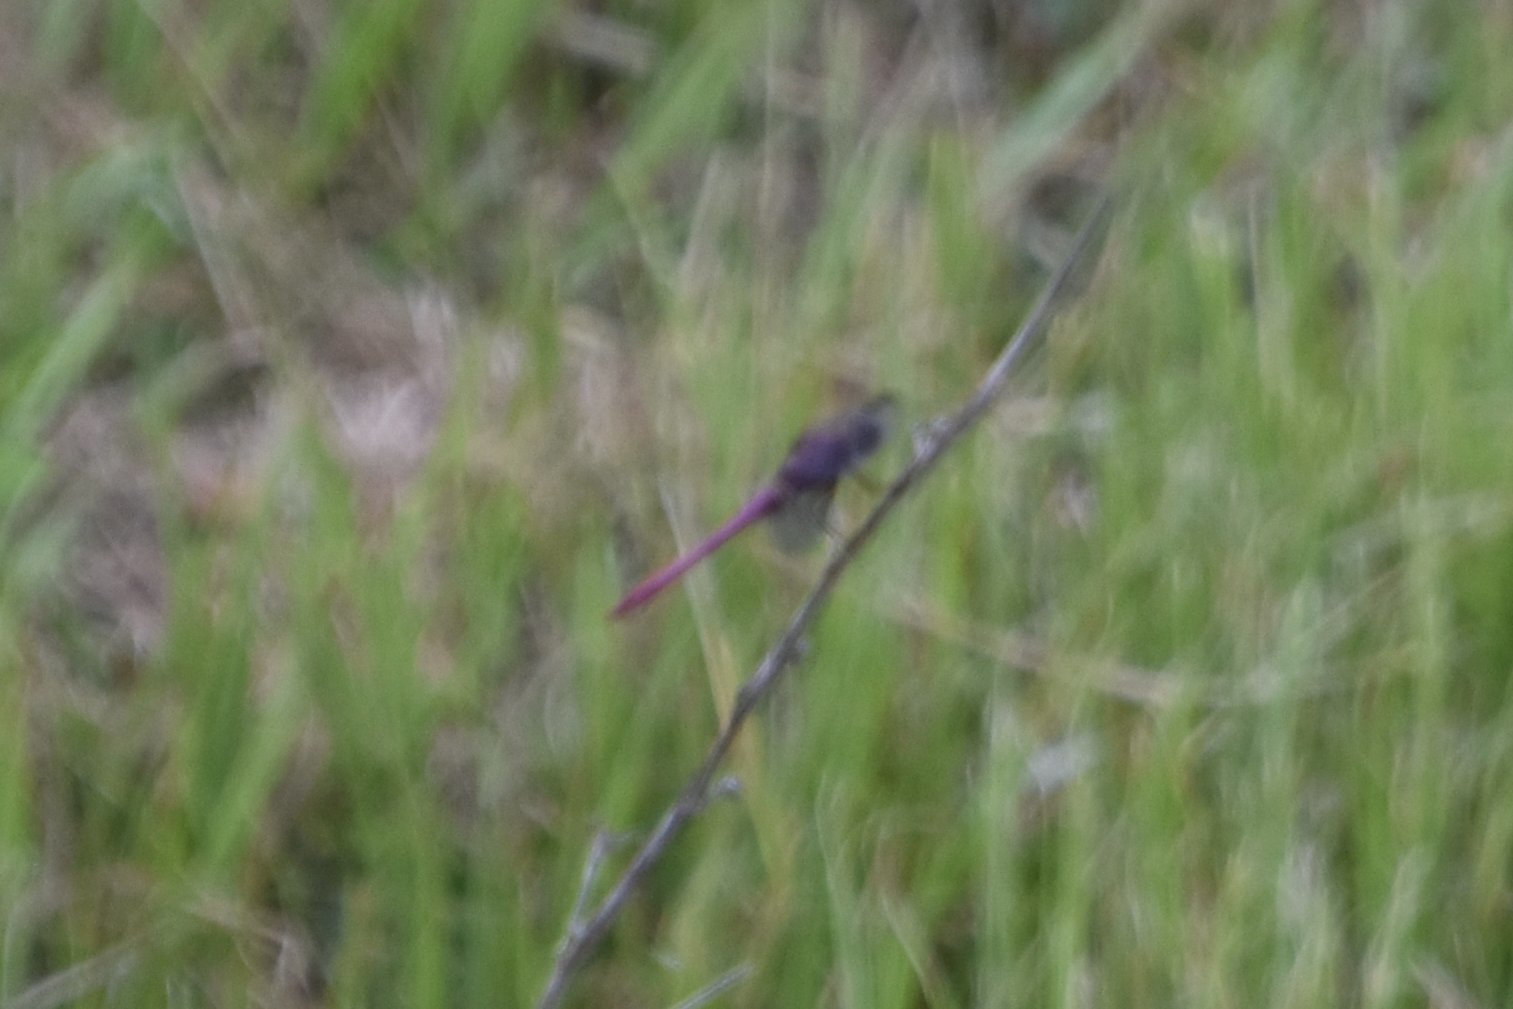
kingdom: Animalia
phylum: Arthropoda
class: Insecta
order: Odonata
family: Libellulidae
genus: Orthemis
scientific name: Orthemis ferruginea
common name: Roseate skimmer
